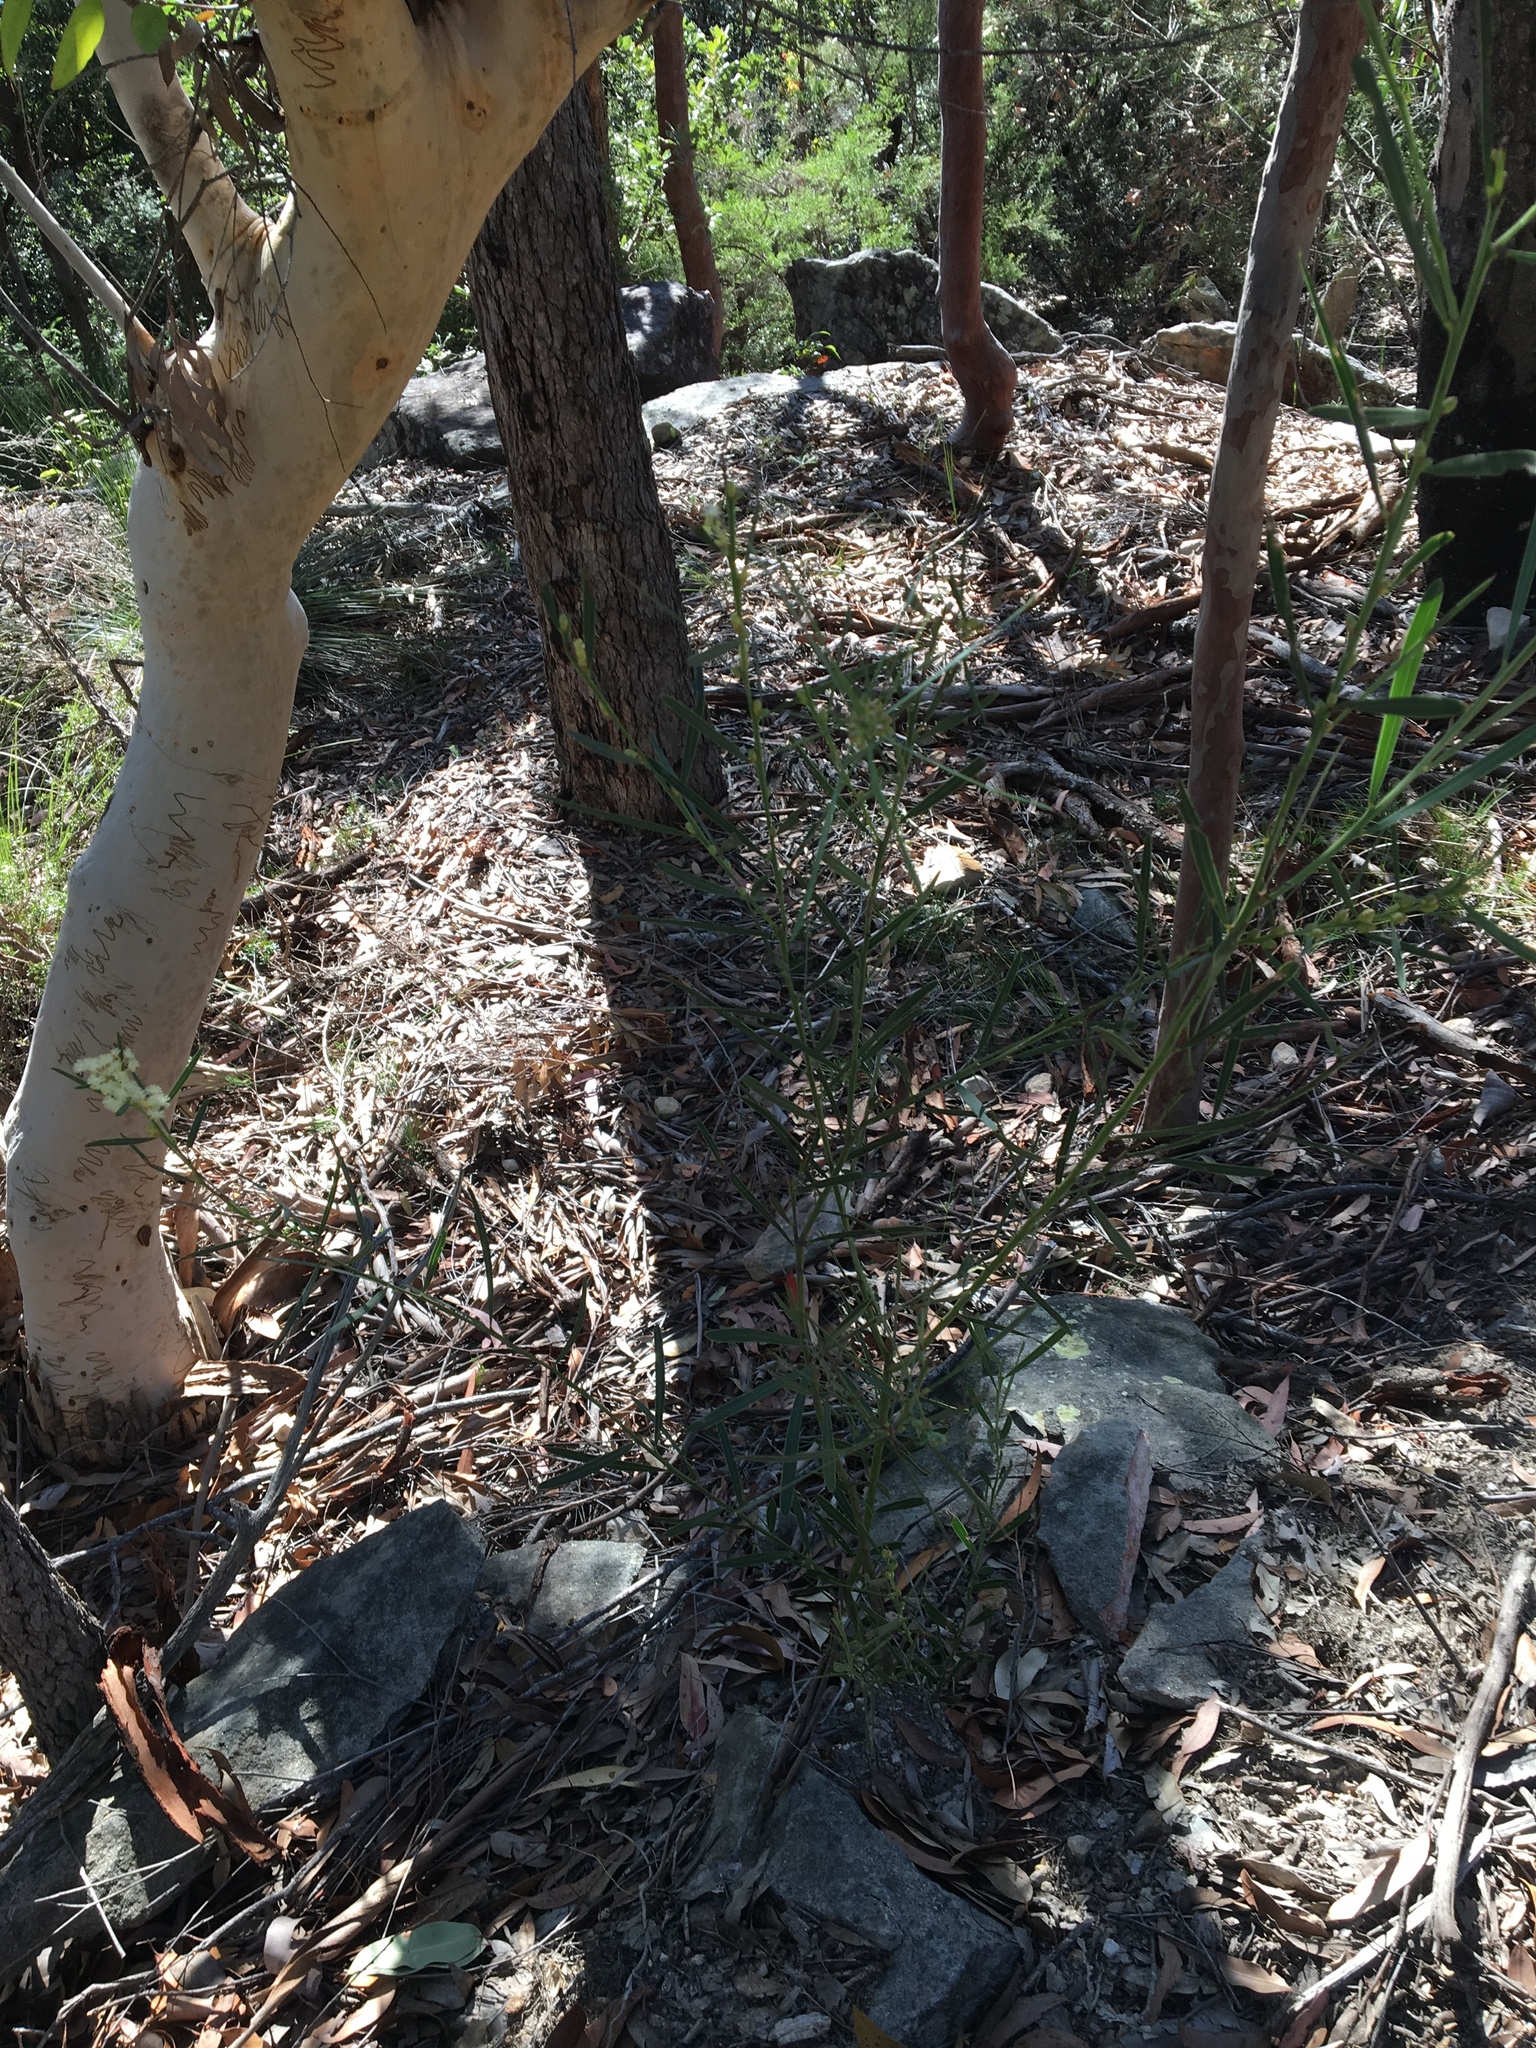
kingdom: Plantae
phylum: Tracheophyta
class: Magnoliopsida
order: Fabales
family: Fabaceae
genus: Acacia
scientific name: Acacia suaveolens
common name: Sweet acacia
